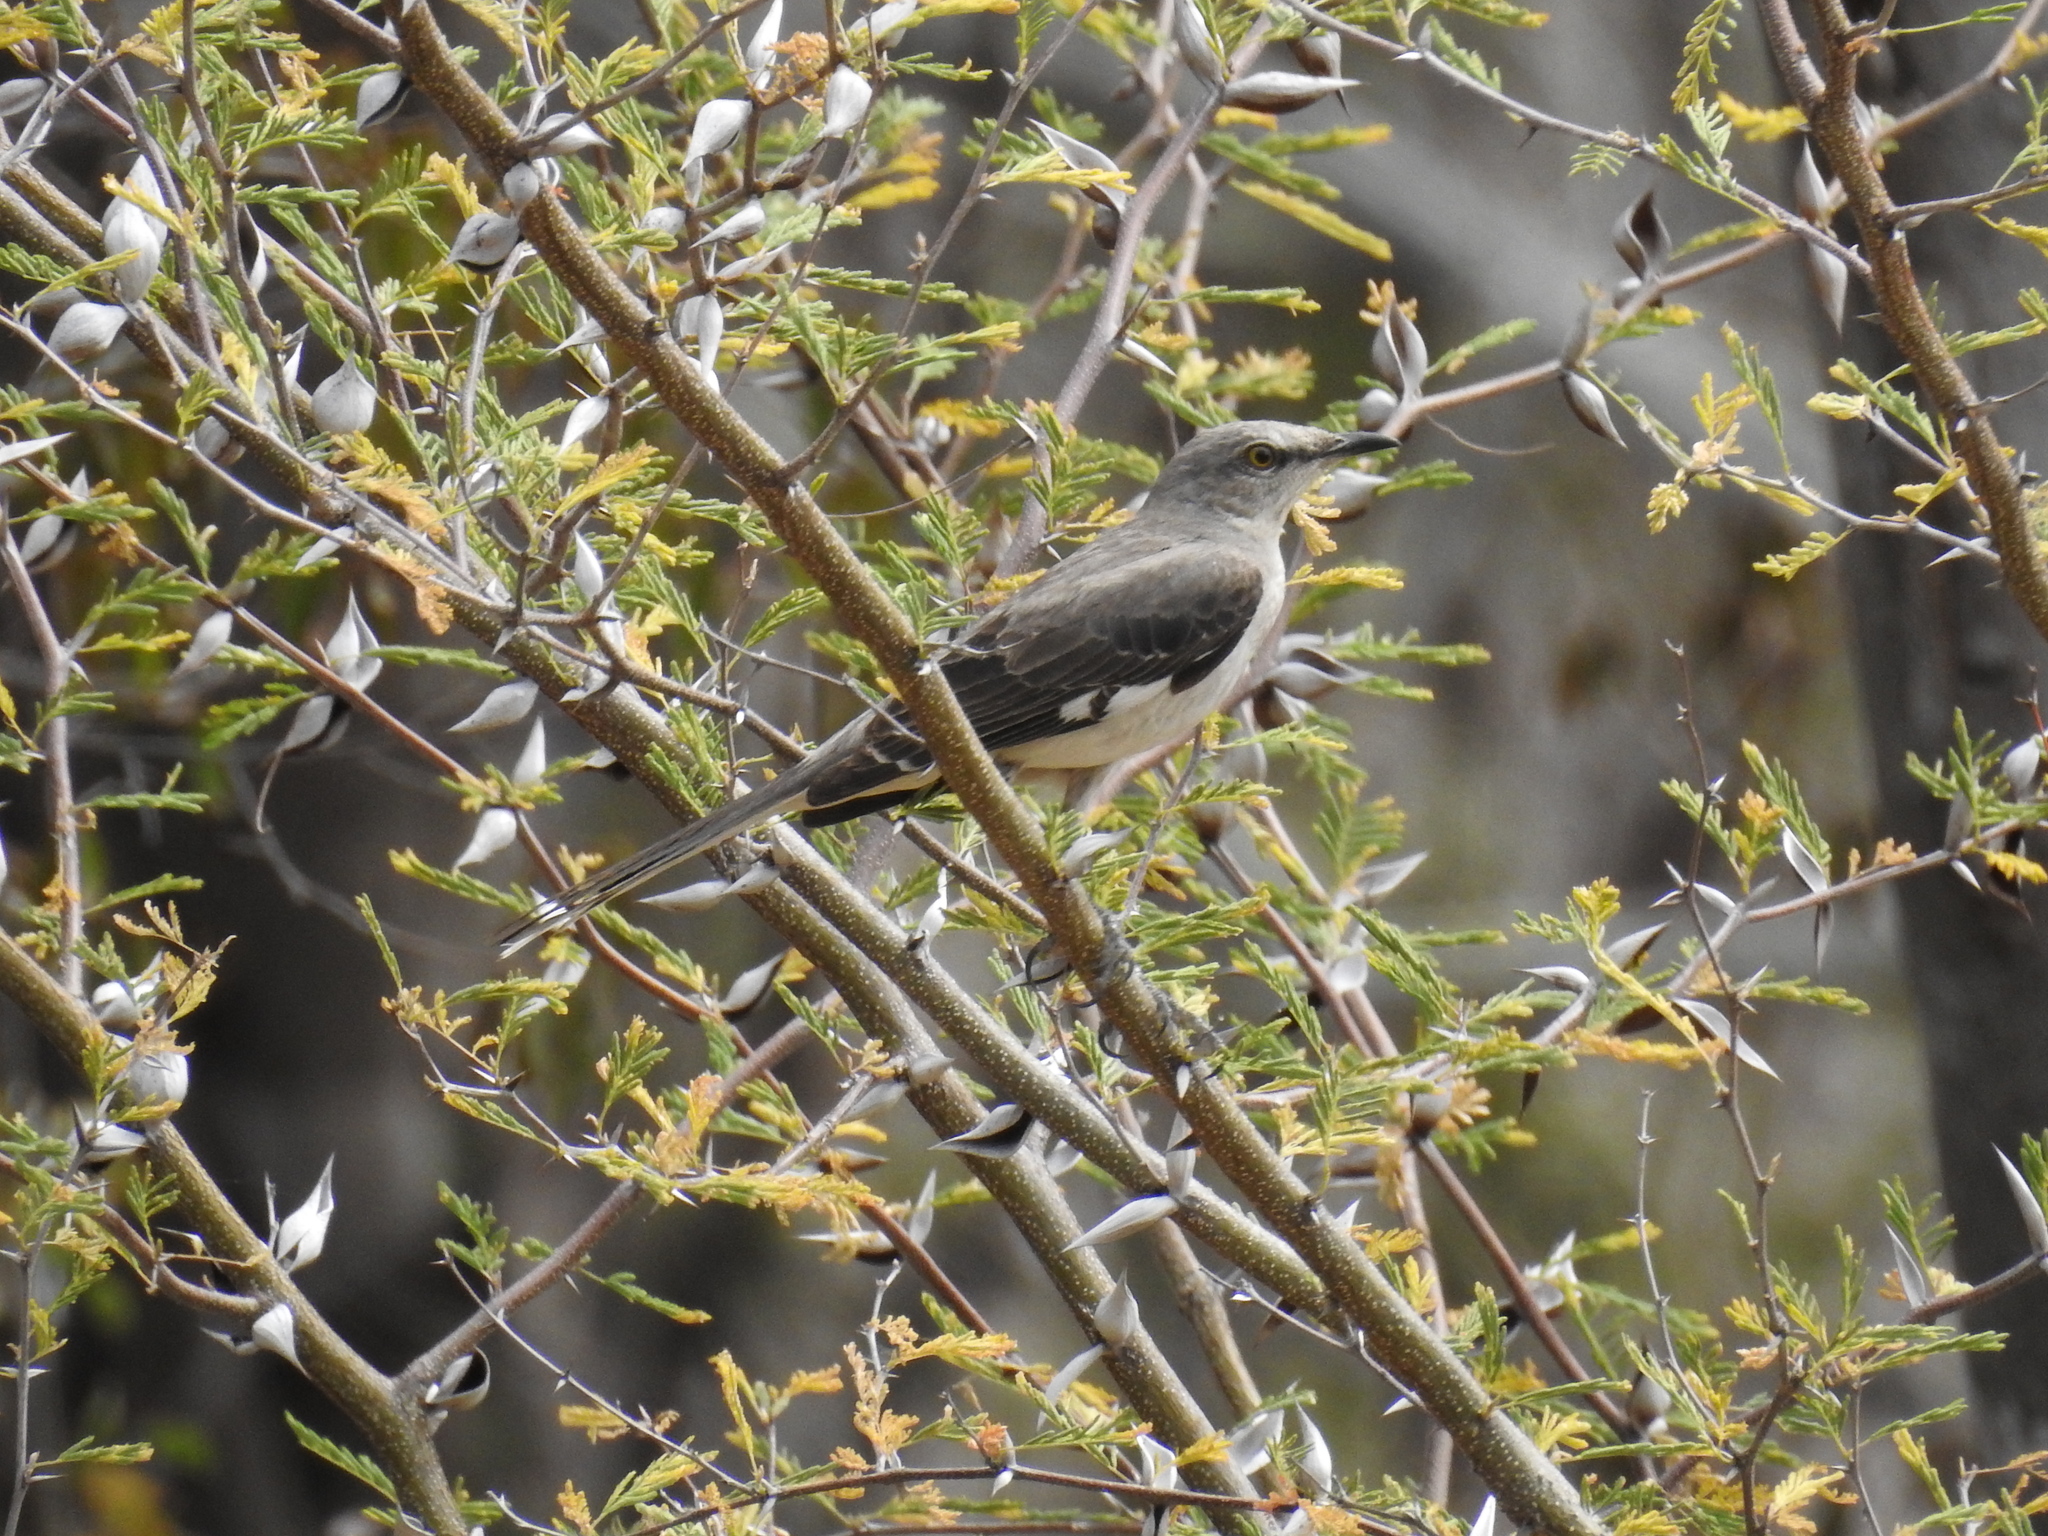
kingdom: Animalia
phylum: Chordata
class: Aves
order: Passeriformes
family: Mimidae
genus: Mimus
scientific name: Mimus polyglottos
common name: Northern mockingbird
